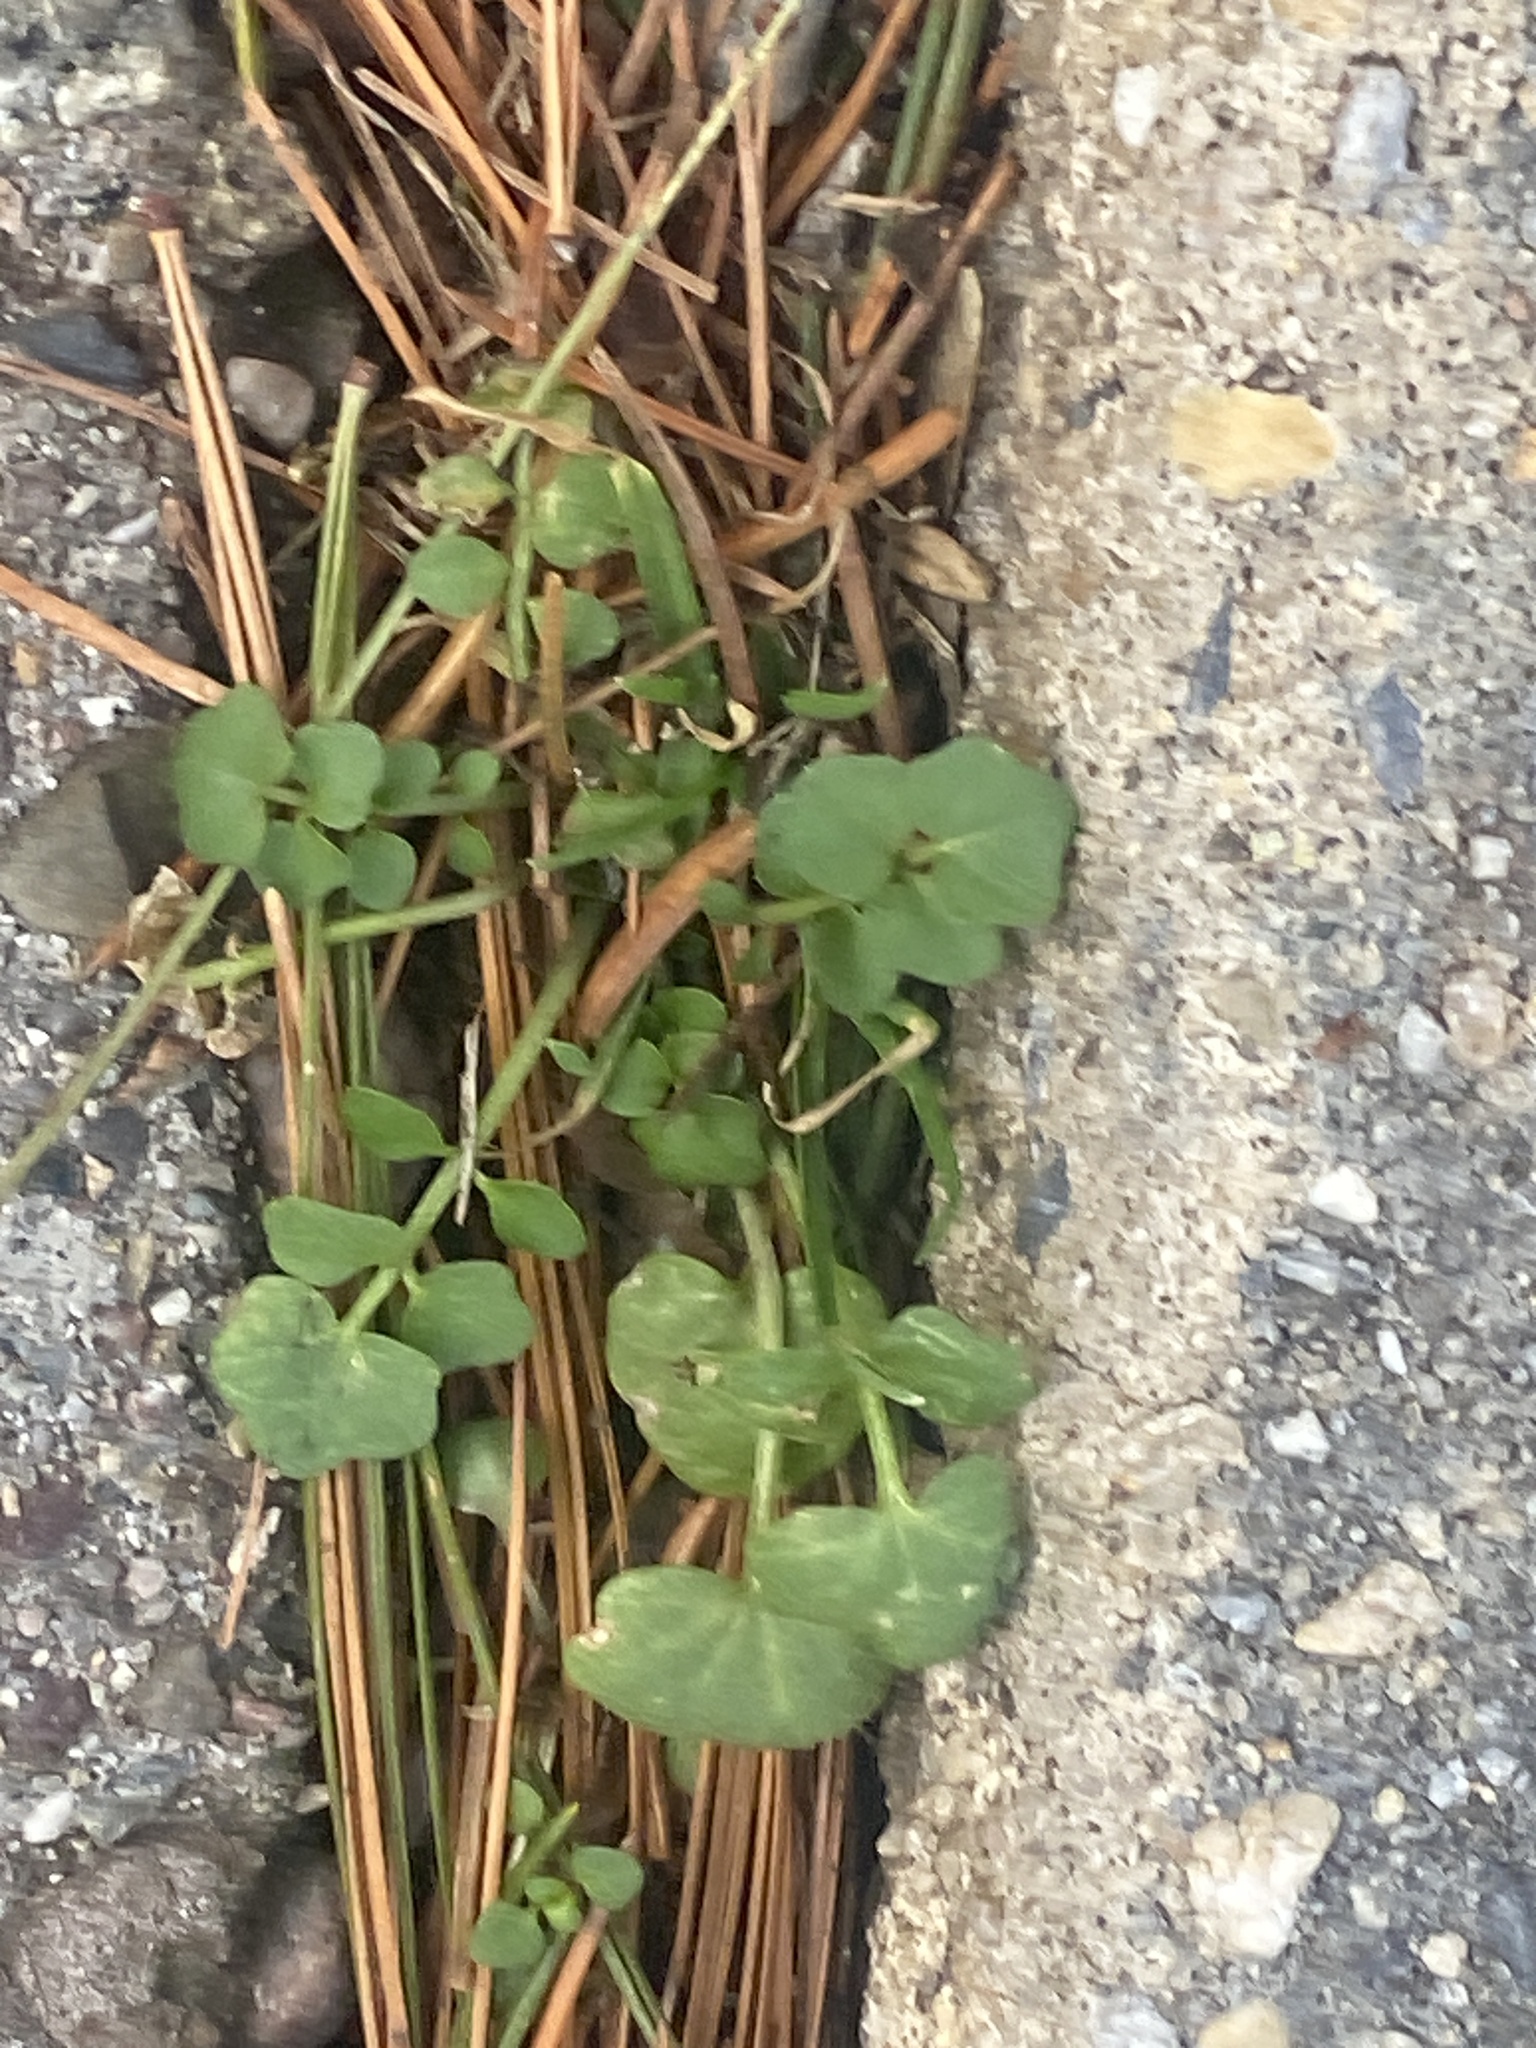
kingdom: Plantae
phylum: Tracheophyta
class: Magnoliopsida
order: Brassicales
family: Brassicaceae
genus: Cardamine
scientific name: Cardamine hirsuta
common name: Hairy bittercress
